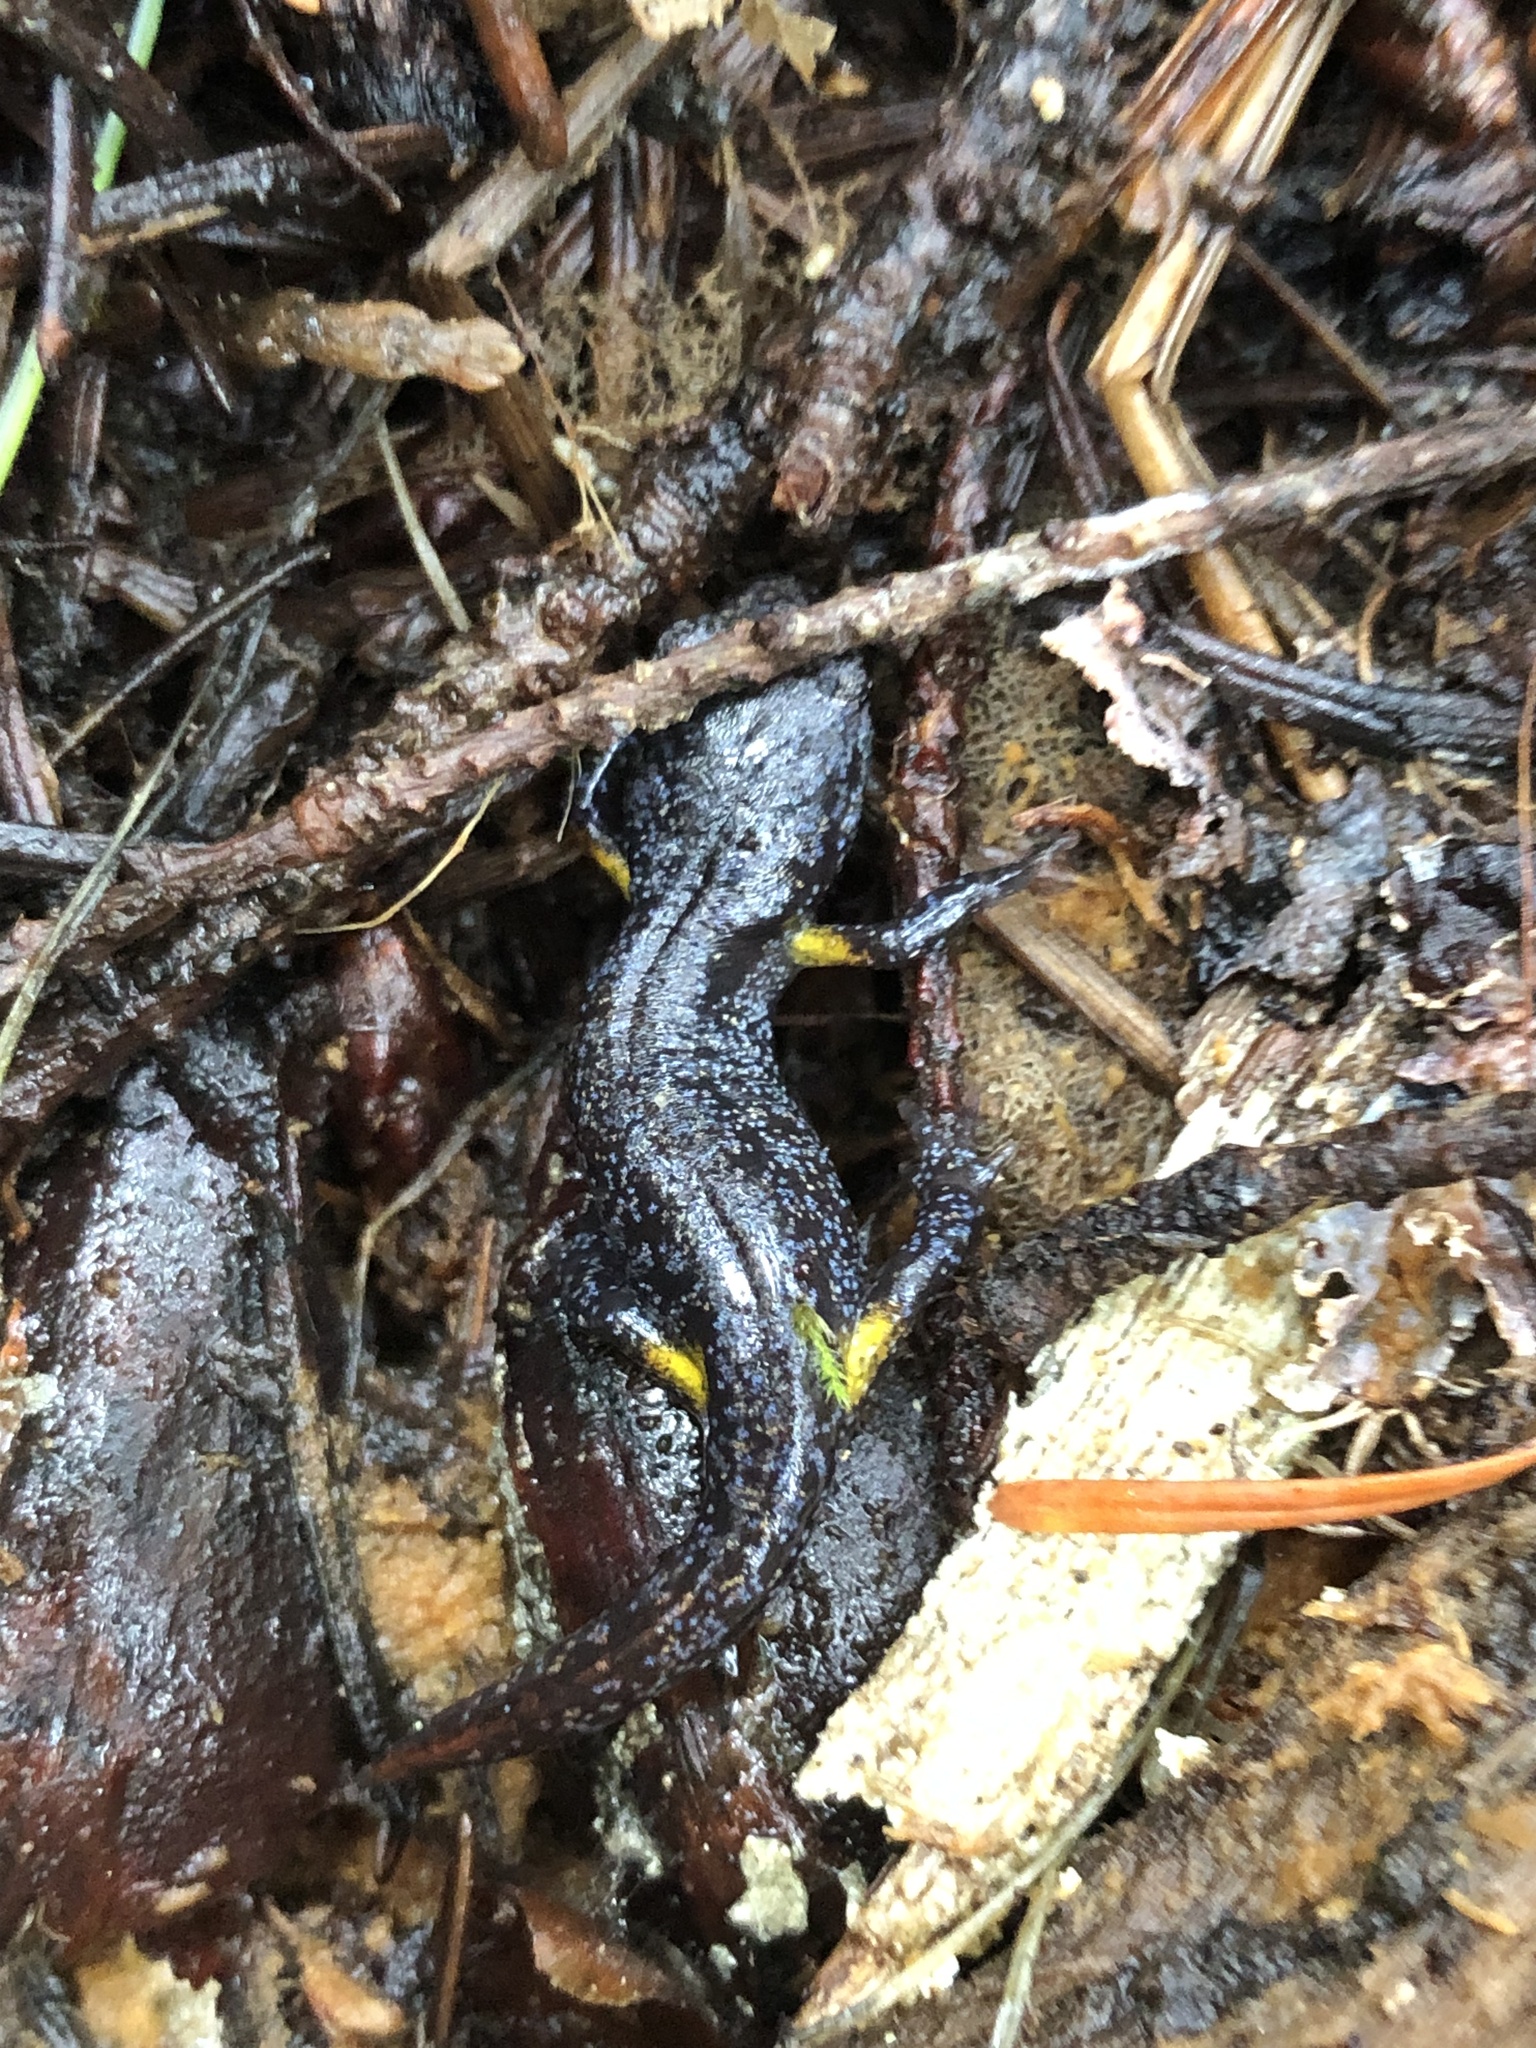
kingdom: Animalia
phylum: Chordata
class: Amphibia
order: Caudata
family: Plethodontidae
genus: Ensatina
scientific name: Ensatina eschscholtzii
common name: Ensatina
